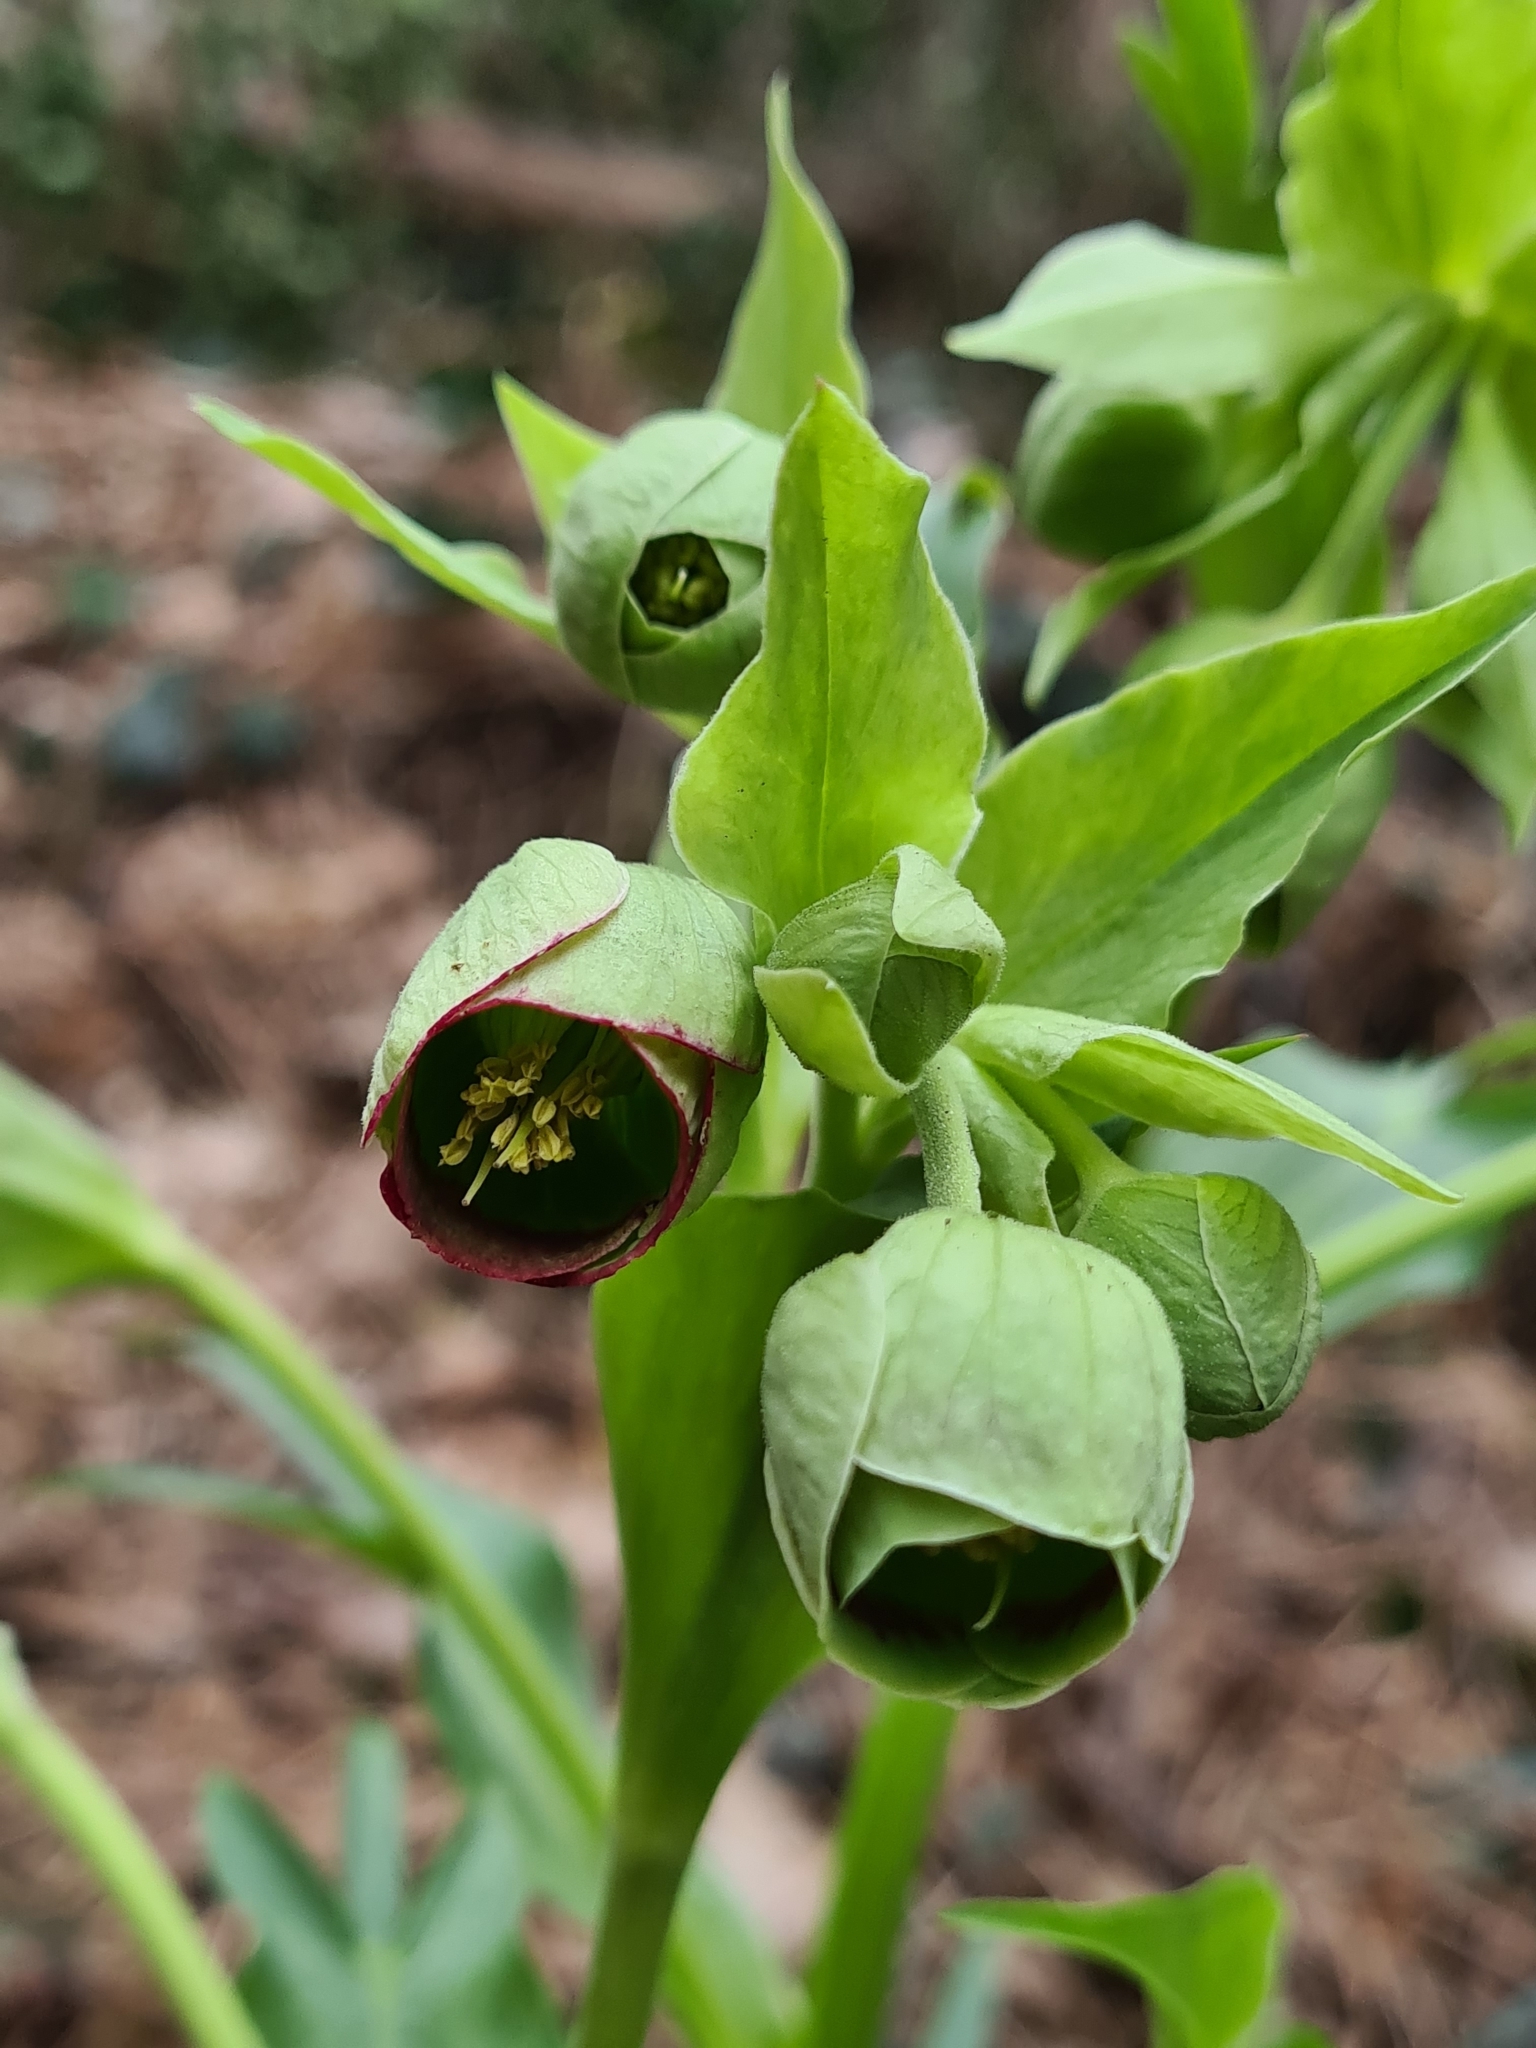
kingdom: Plantae
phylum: Tracheophyta
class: Magnoliopsida
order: Ranunculales
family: Ranunculaceae
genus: Helleborus
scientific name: Helleborus foetidus
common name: Stinking hellebore
